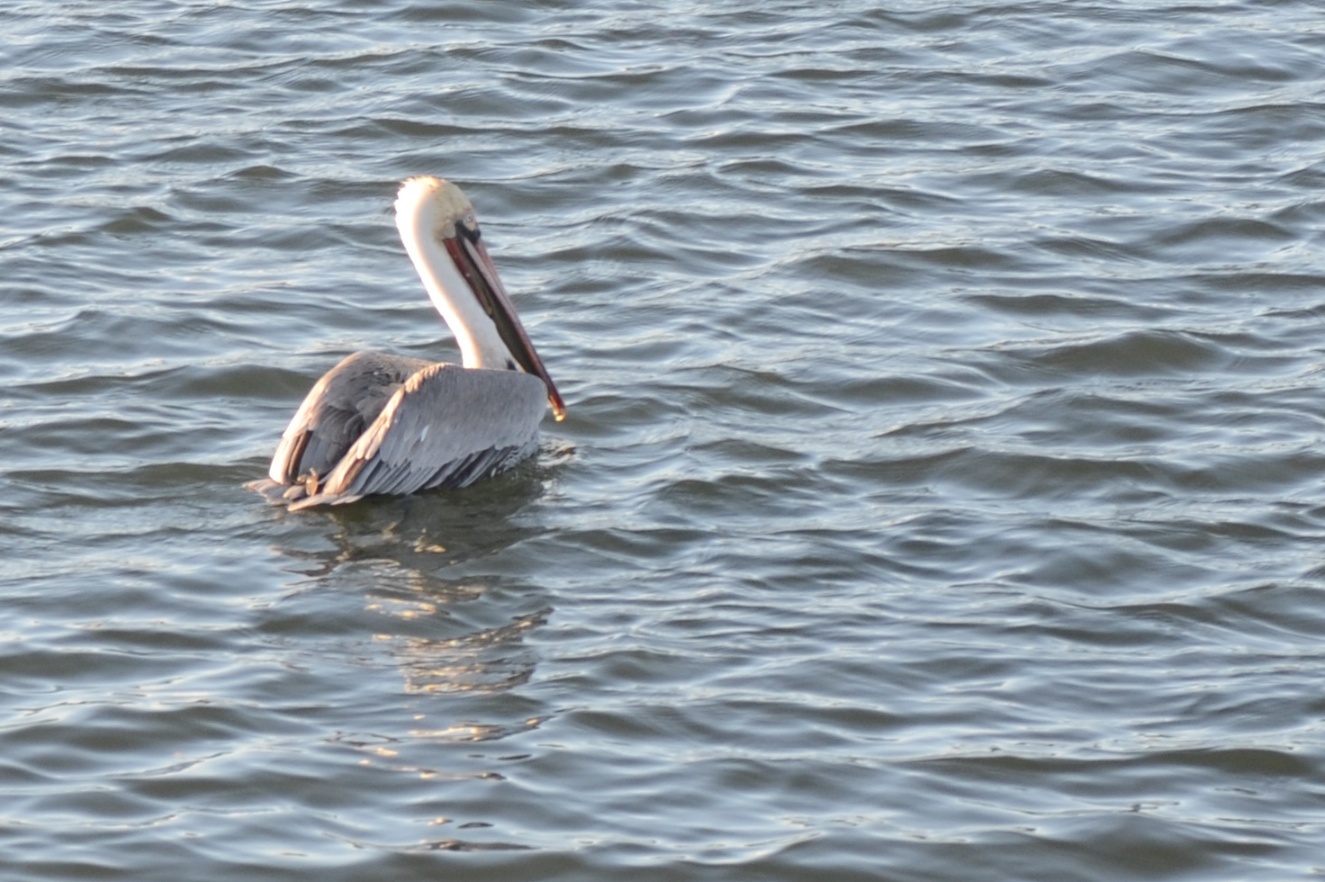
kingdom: Animalia
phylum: Chordata
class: Aves
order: Pelecaniformes
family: Pelecanidae
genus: Pelecanus
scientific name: Pelecanus occidentalis
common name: Brown pelican
